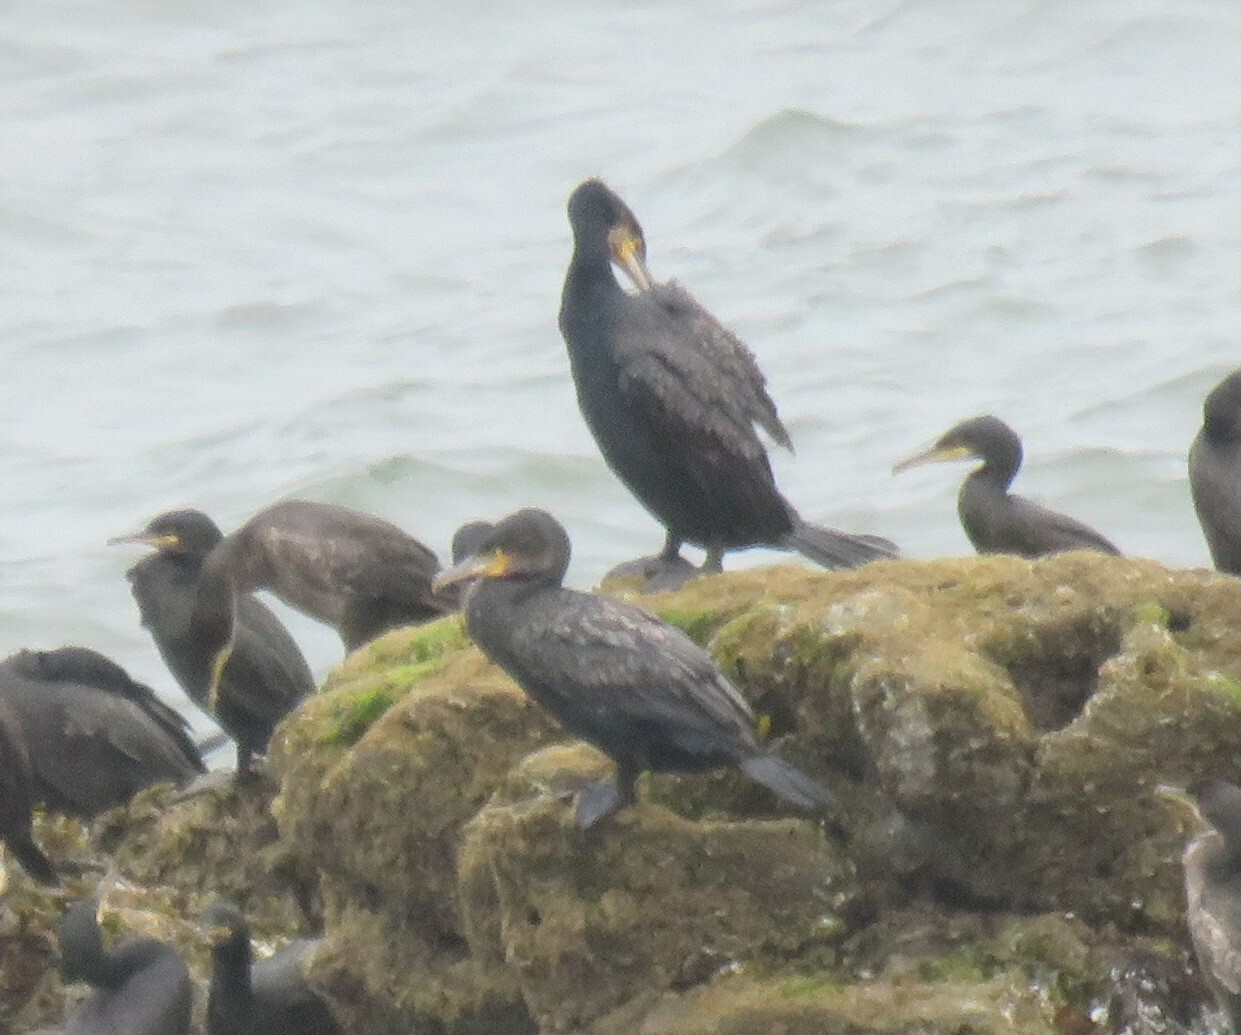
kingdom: Animalia
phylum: Chordata
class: Aves
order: Suliformes
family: Phalacrocoracidae
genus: Phalacrocorax
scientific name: Phalacrocorax carbo
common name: Great cormorant
